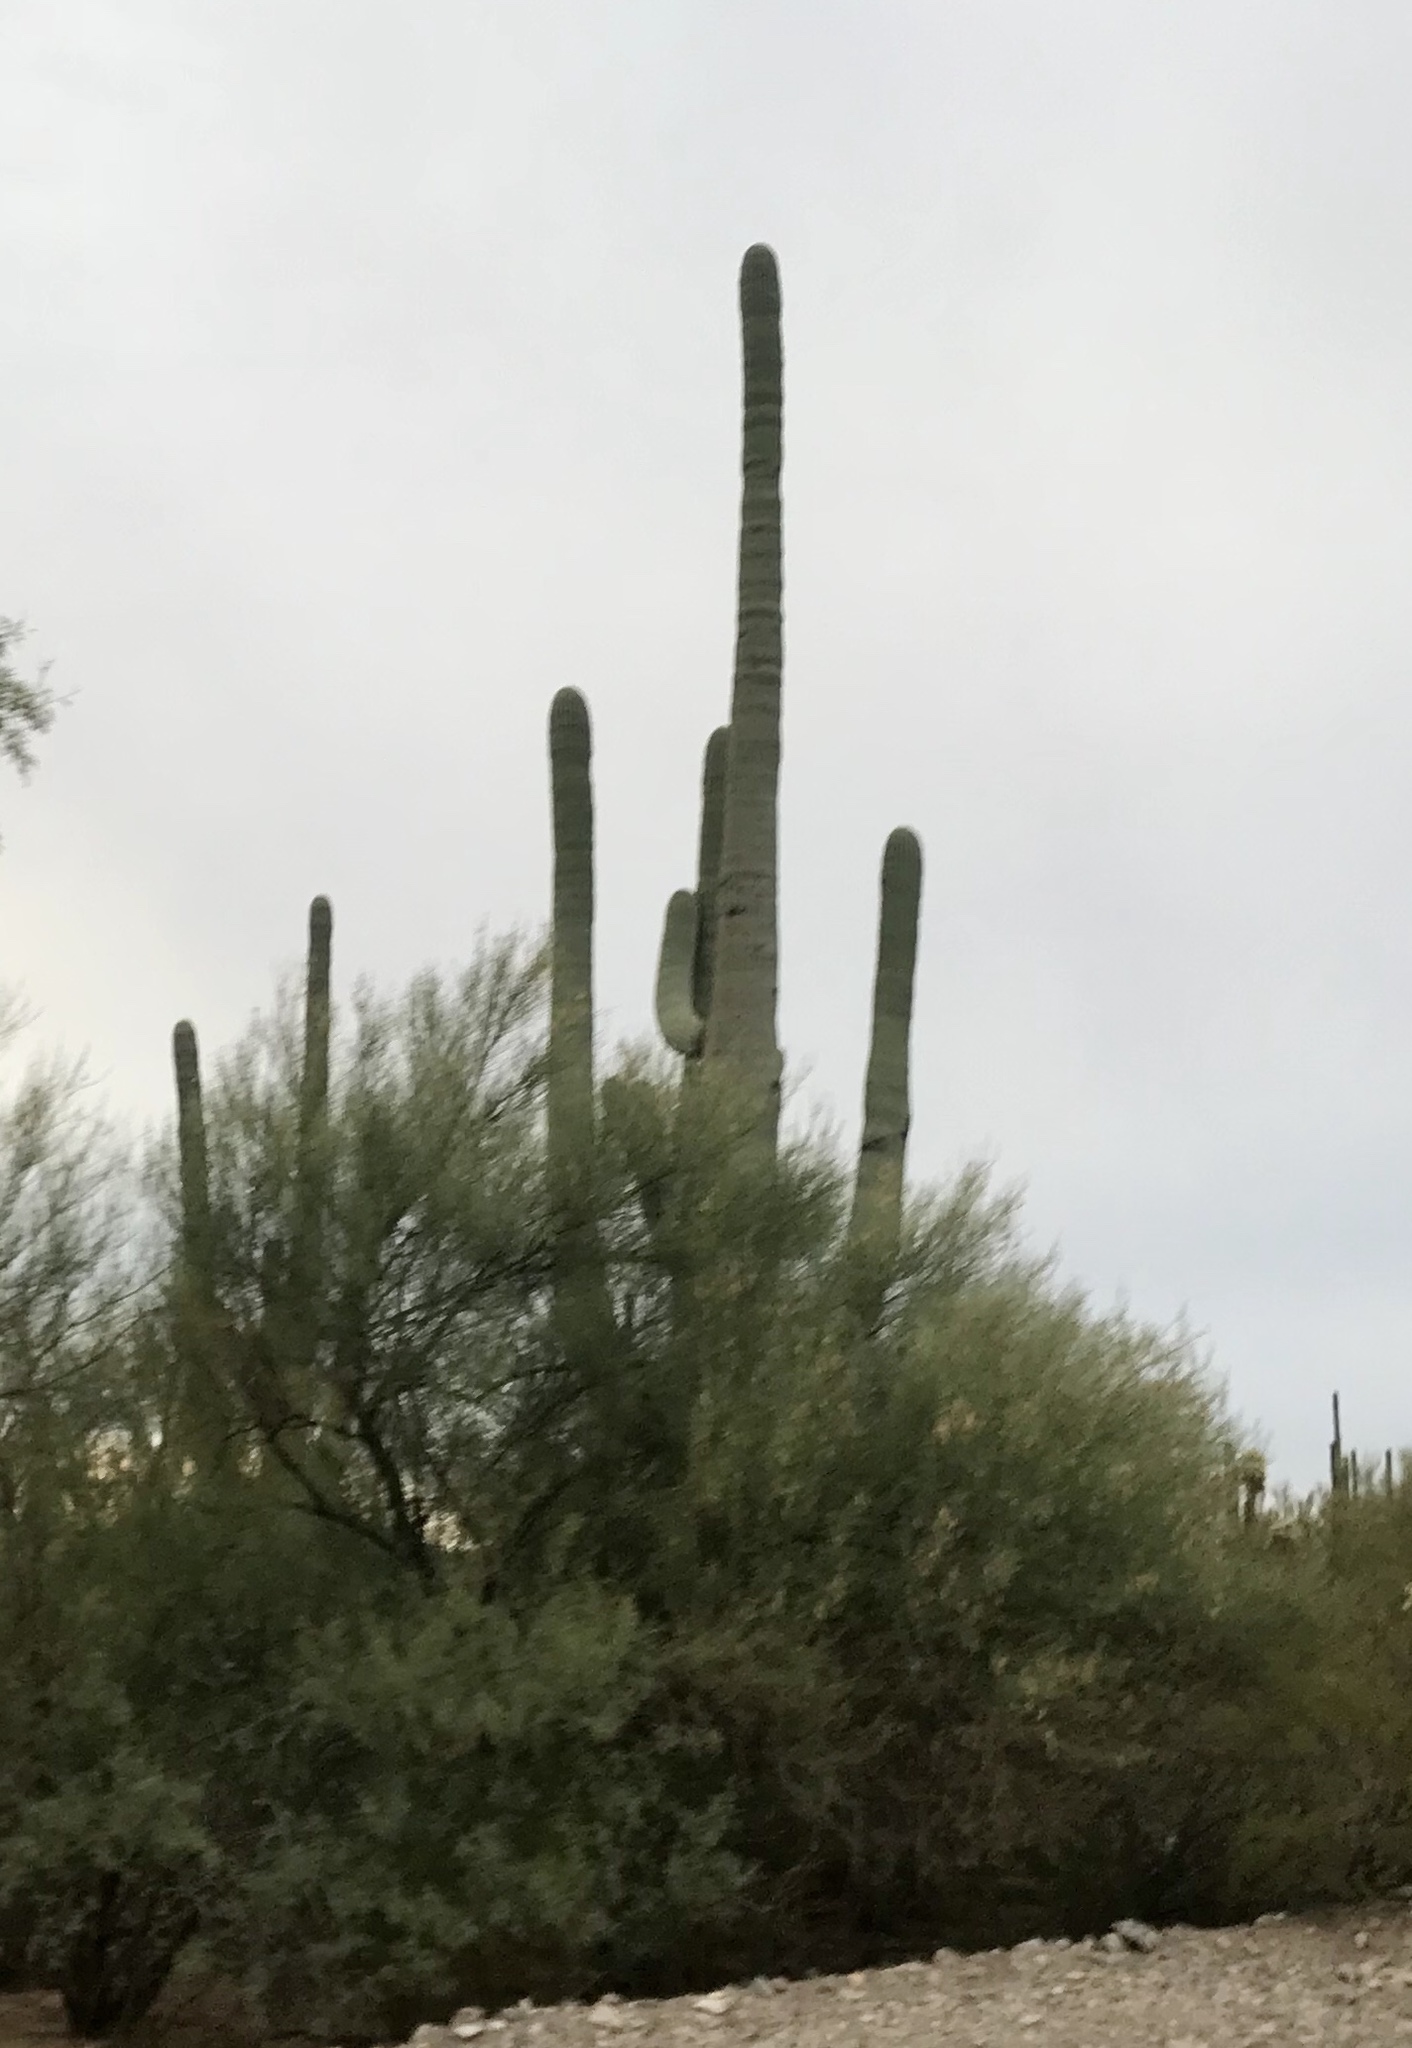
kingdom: Plantae
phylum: Tracheophyta
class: Magnoliopsida
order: Caryophyllales
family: Cactaceae
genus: Carnegiea
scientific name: Carnegiea gigantea
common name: Saguaro
